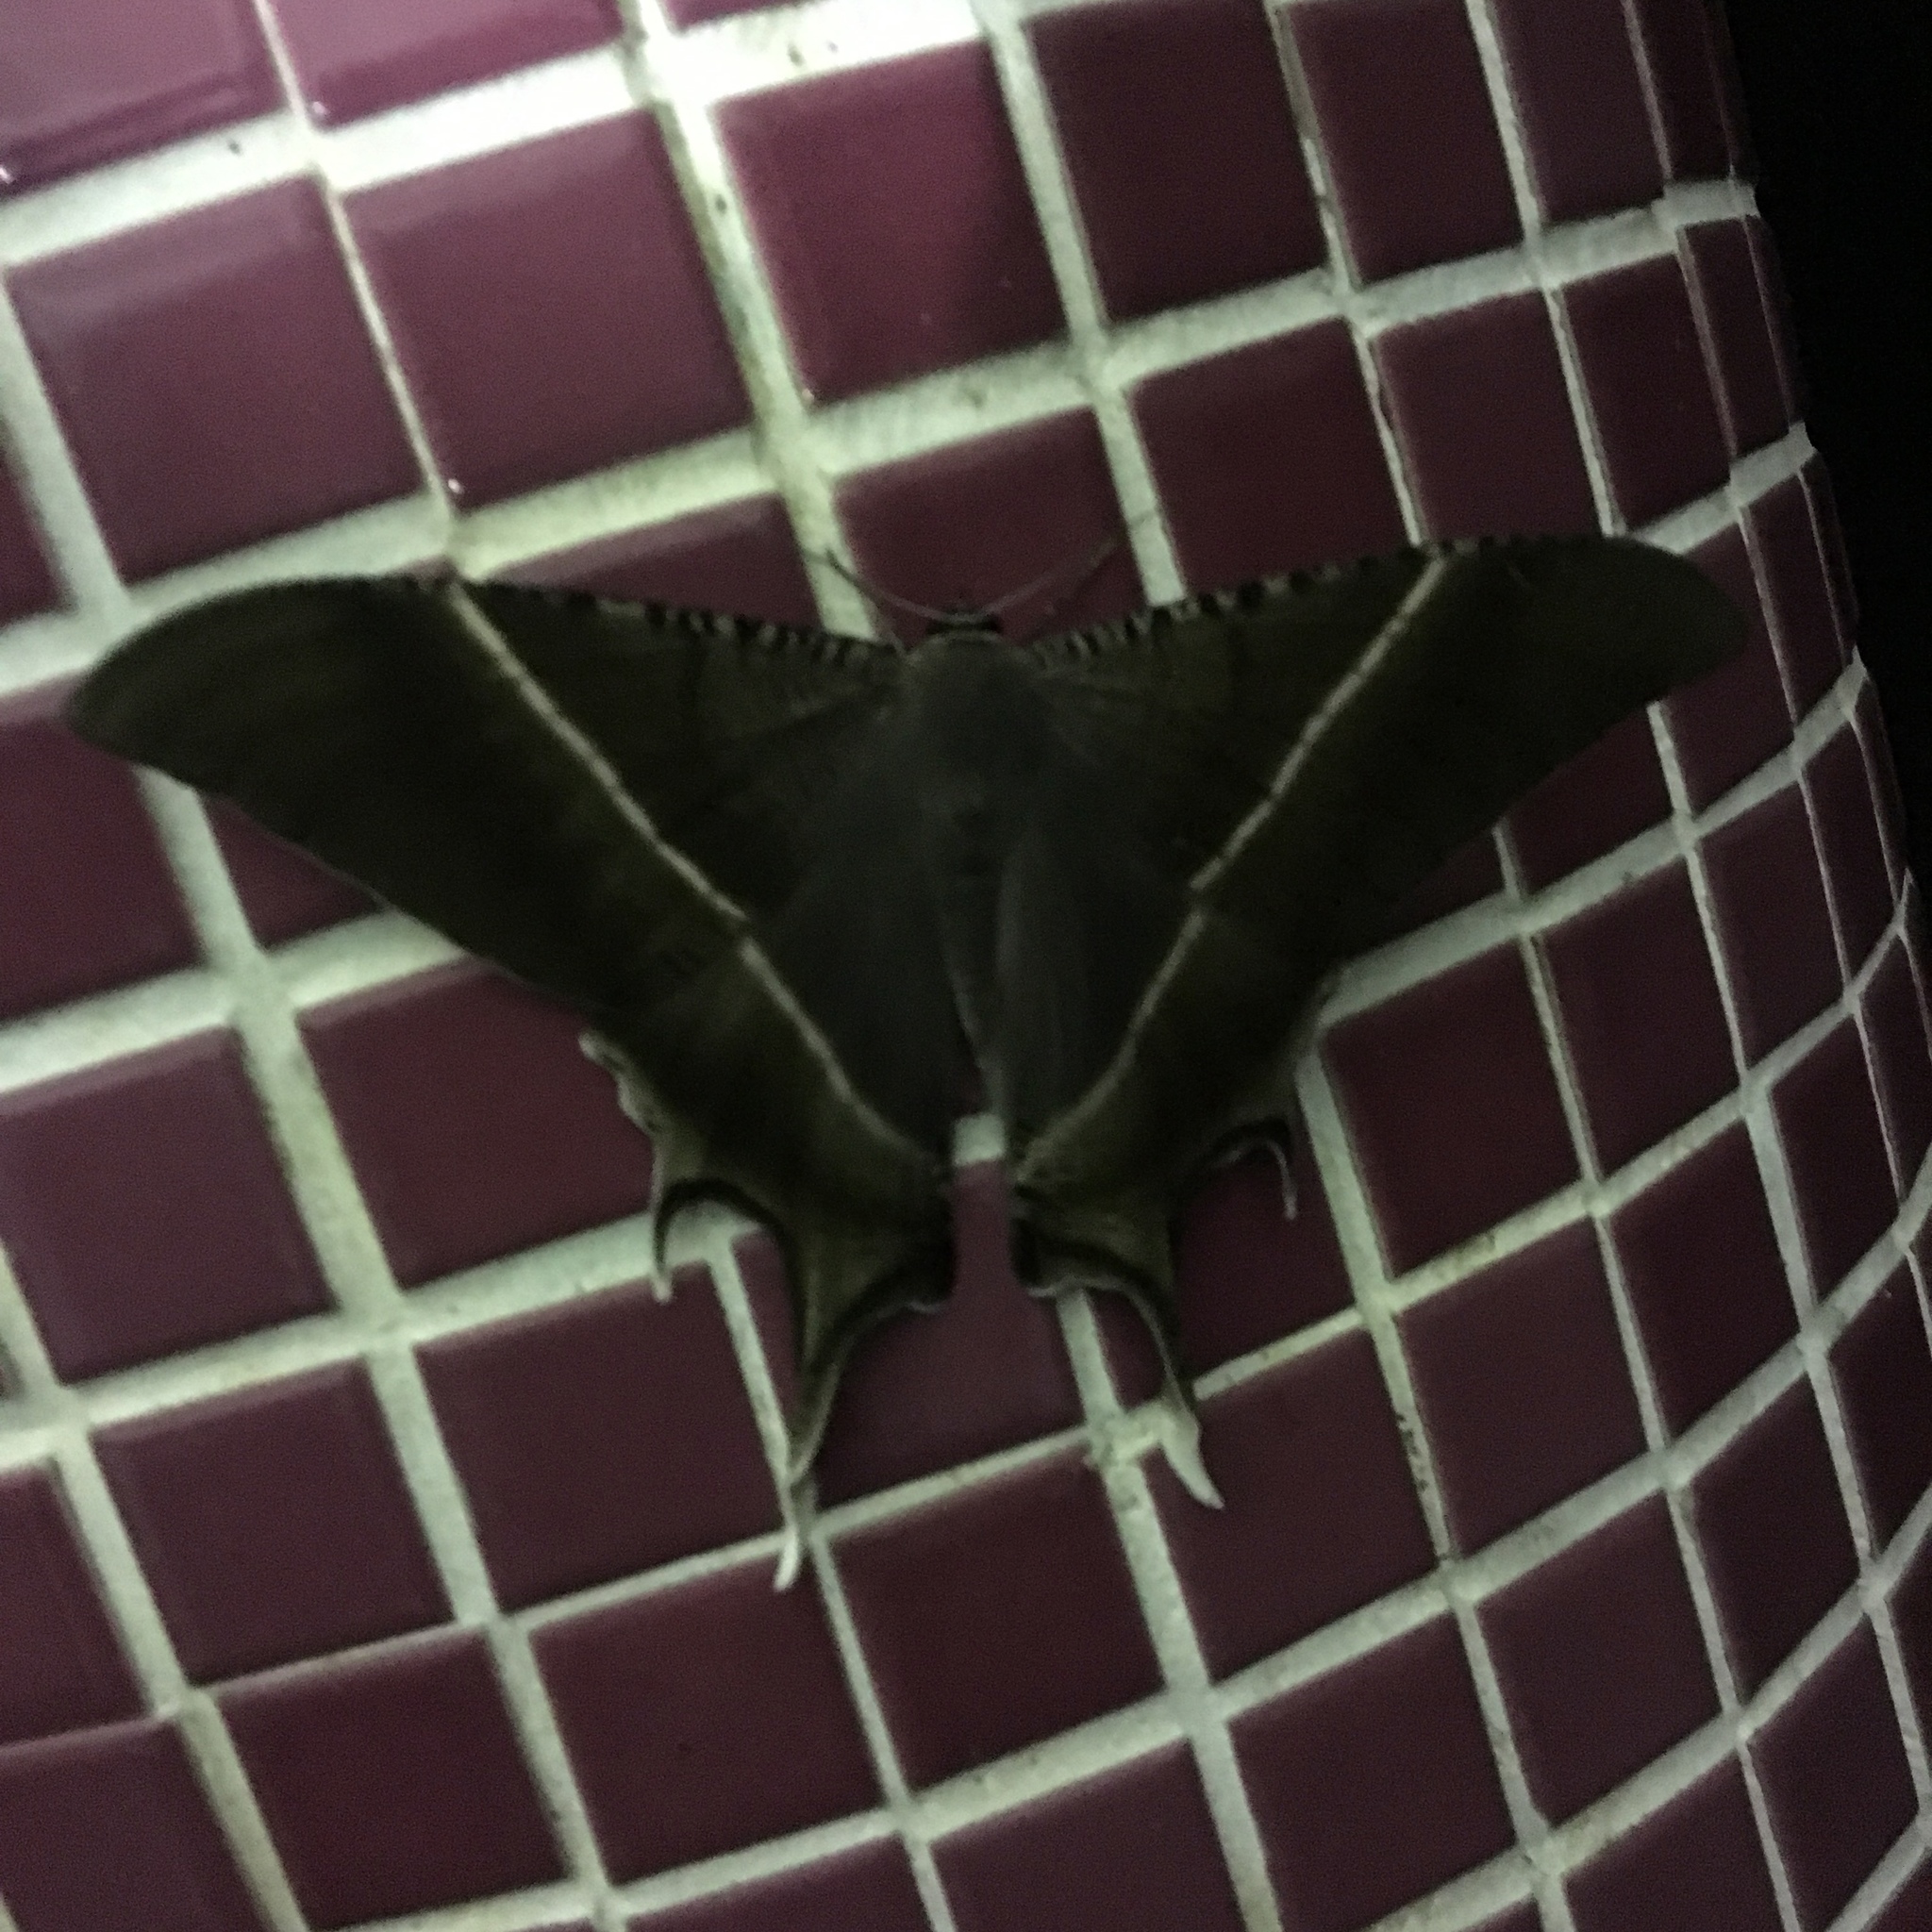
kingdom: Animalia
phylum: Arthropoda
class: Insecta
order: Lepidoptera
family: Uraniidae
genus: Lyssa
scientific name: Lyssa zampa
